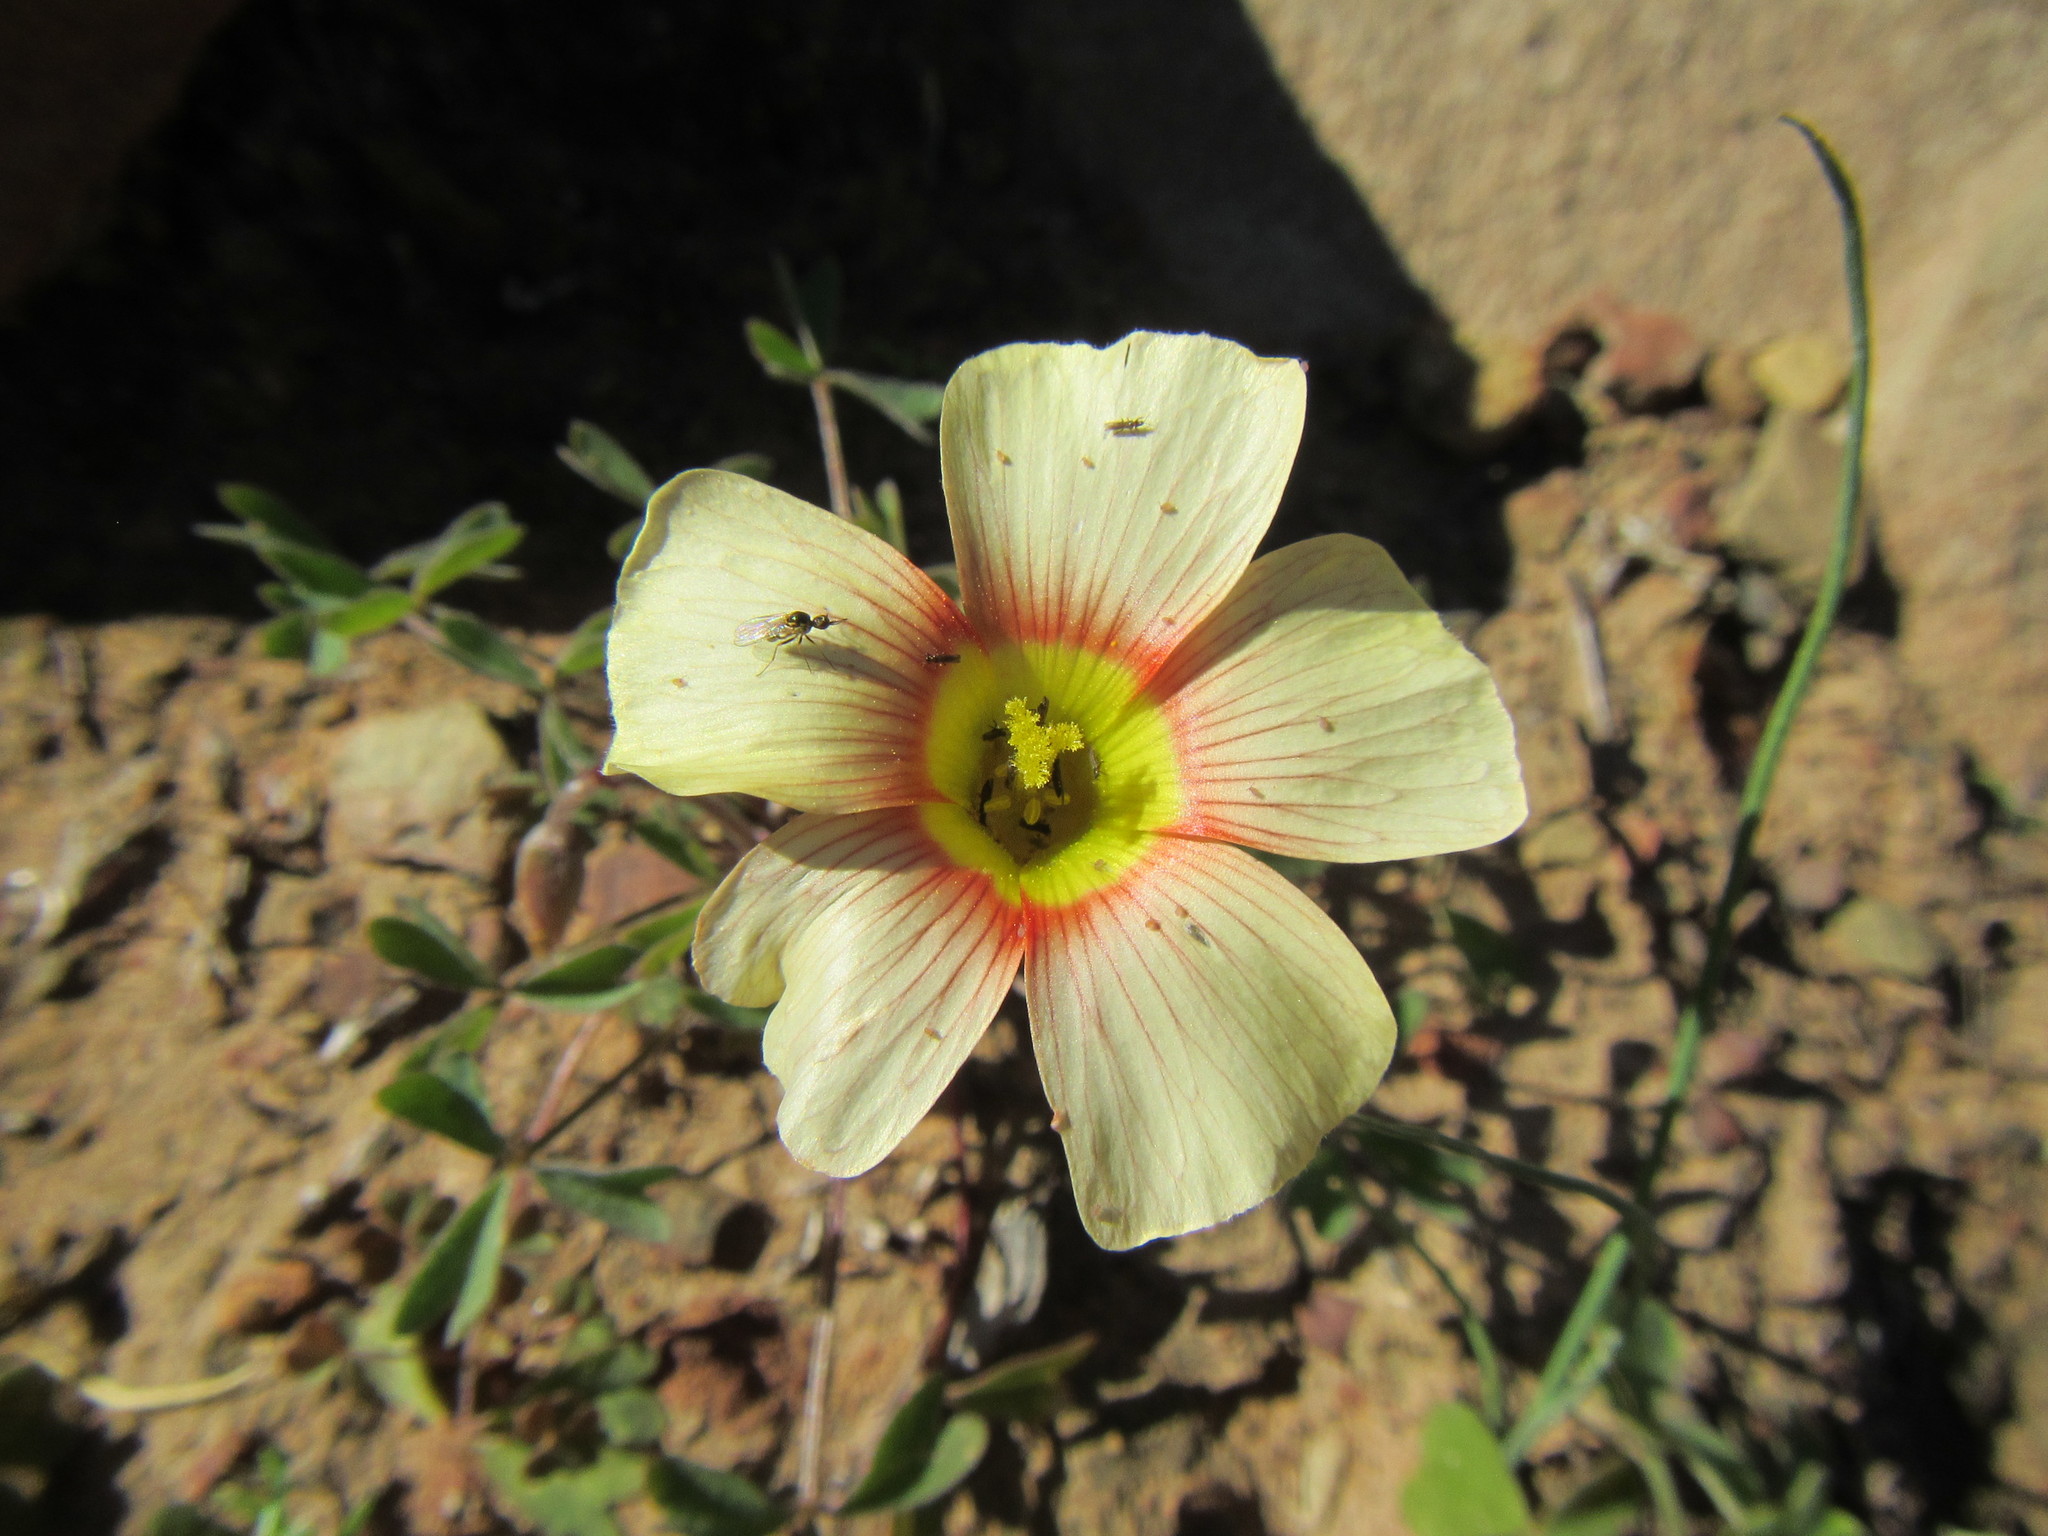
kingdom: Plantae
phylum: Tracheophyta
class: Magnoliopsida
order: Oxalidales
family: Oxalidaceae
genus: Oxalis
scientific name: Oxalis obtusa
